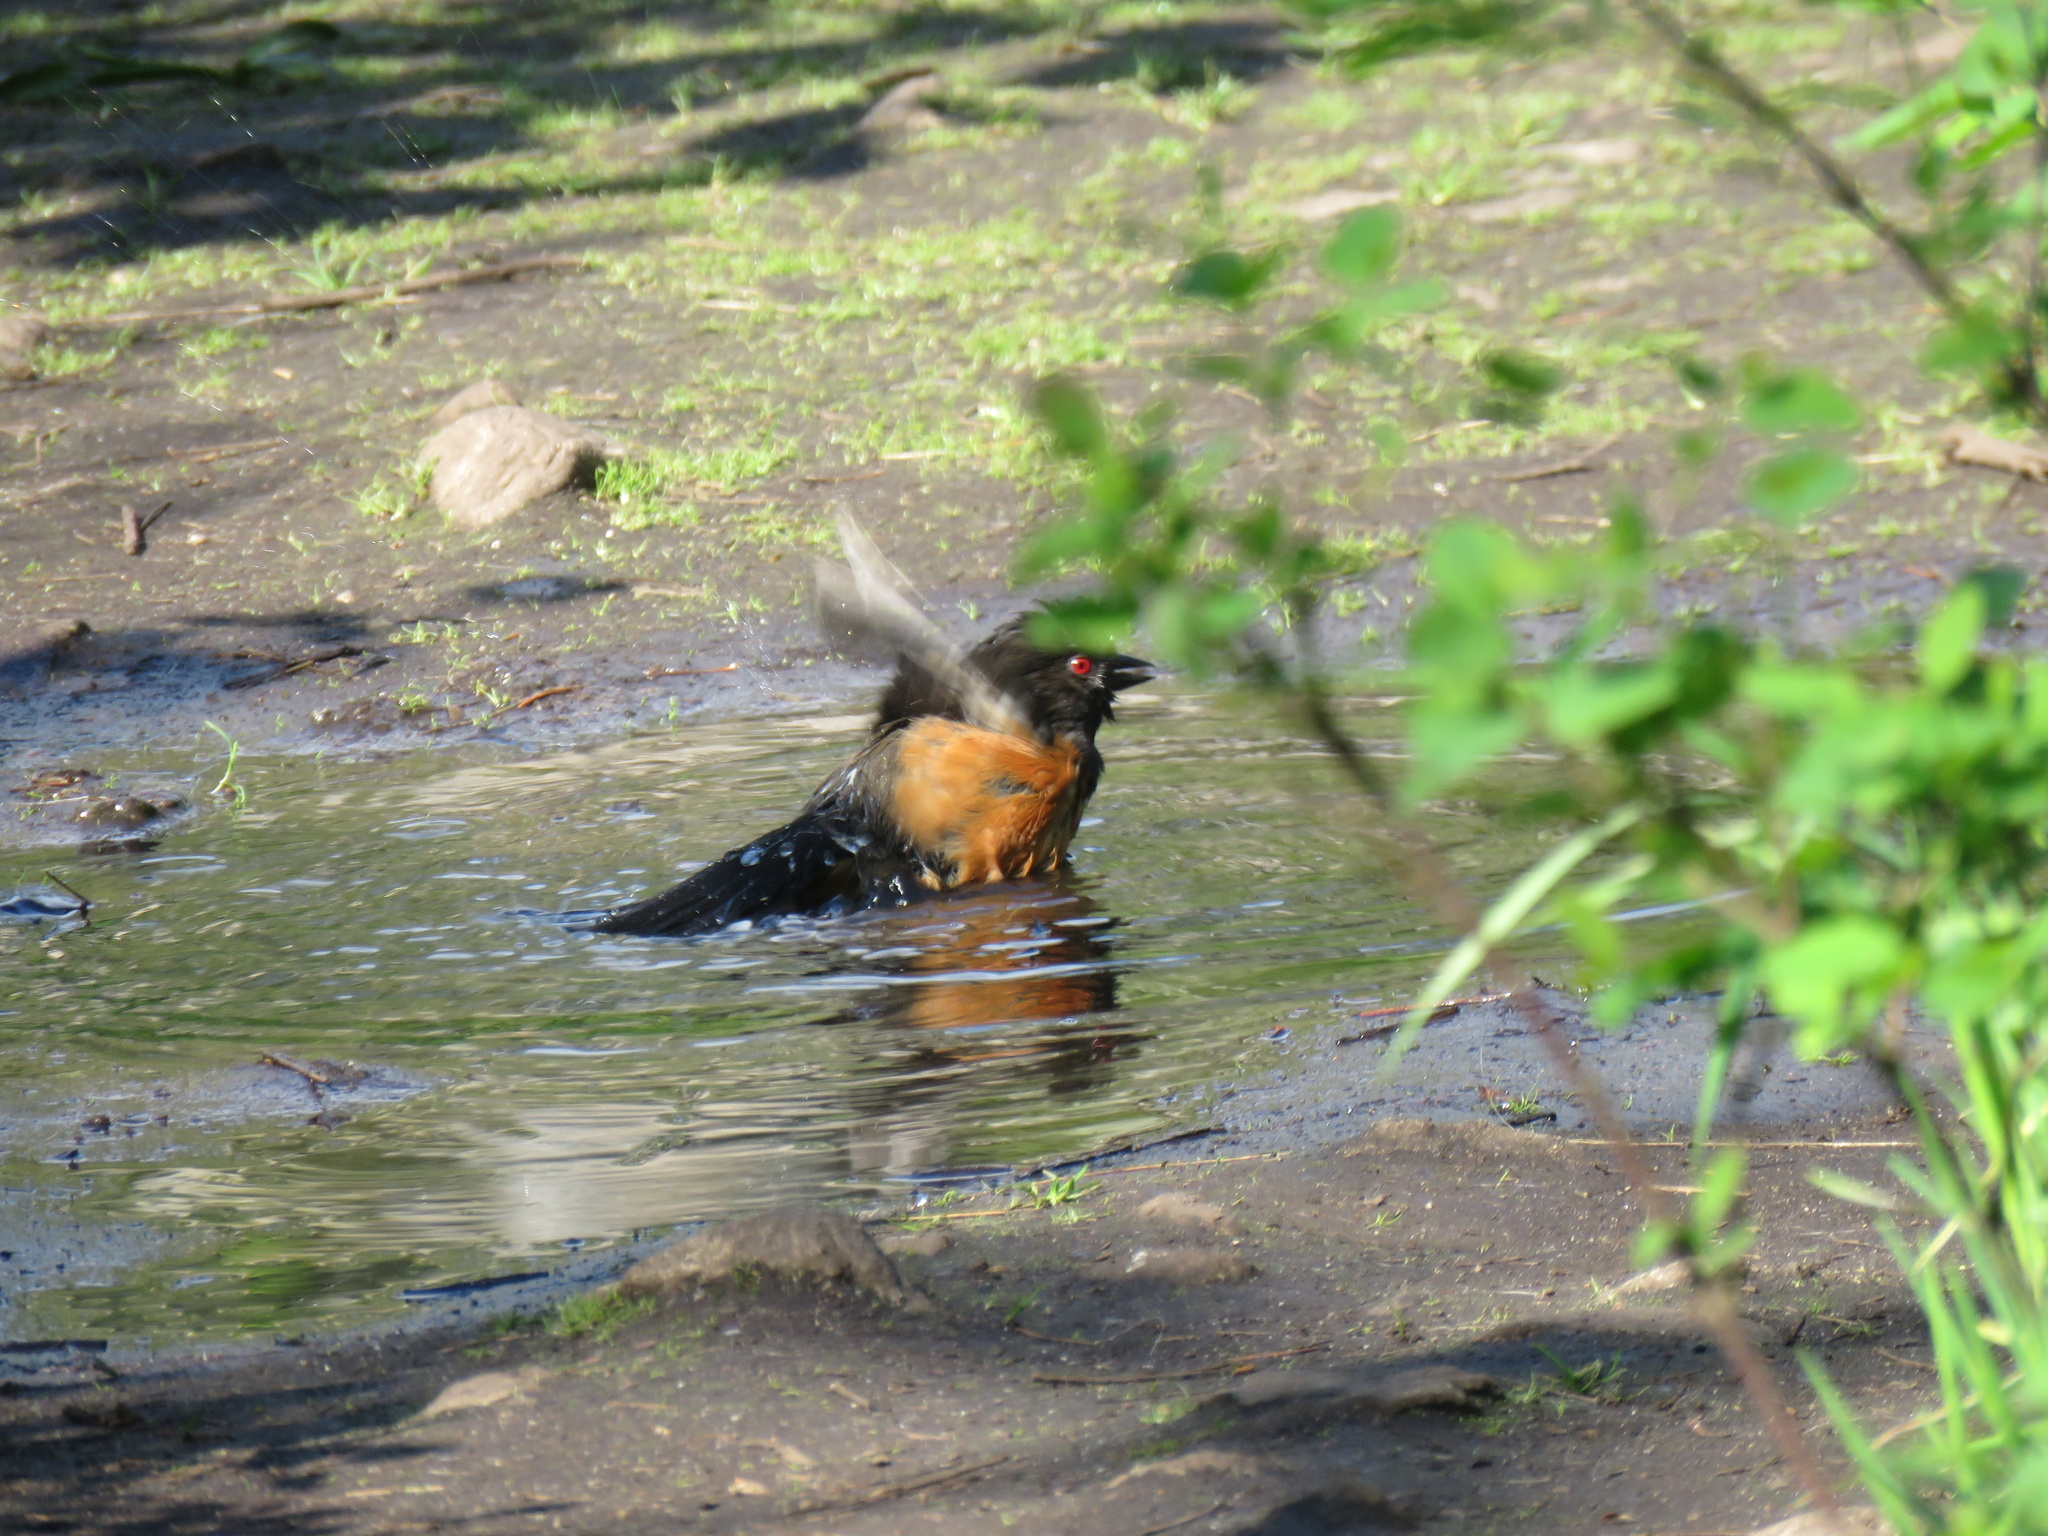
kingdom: Animalia
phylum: Chordata
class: Aves
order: Passeriformes
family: Passerellidae
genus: Pipilo
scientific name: Pipilo maculatus
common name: Spotted towhee
